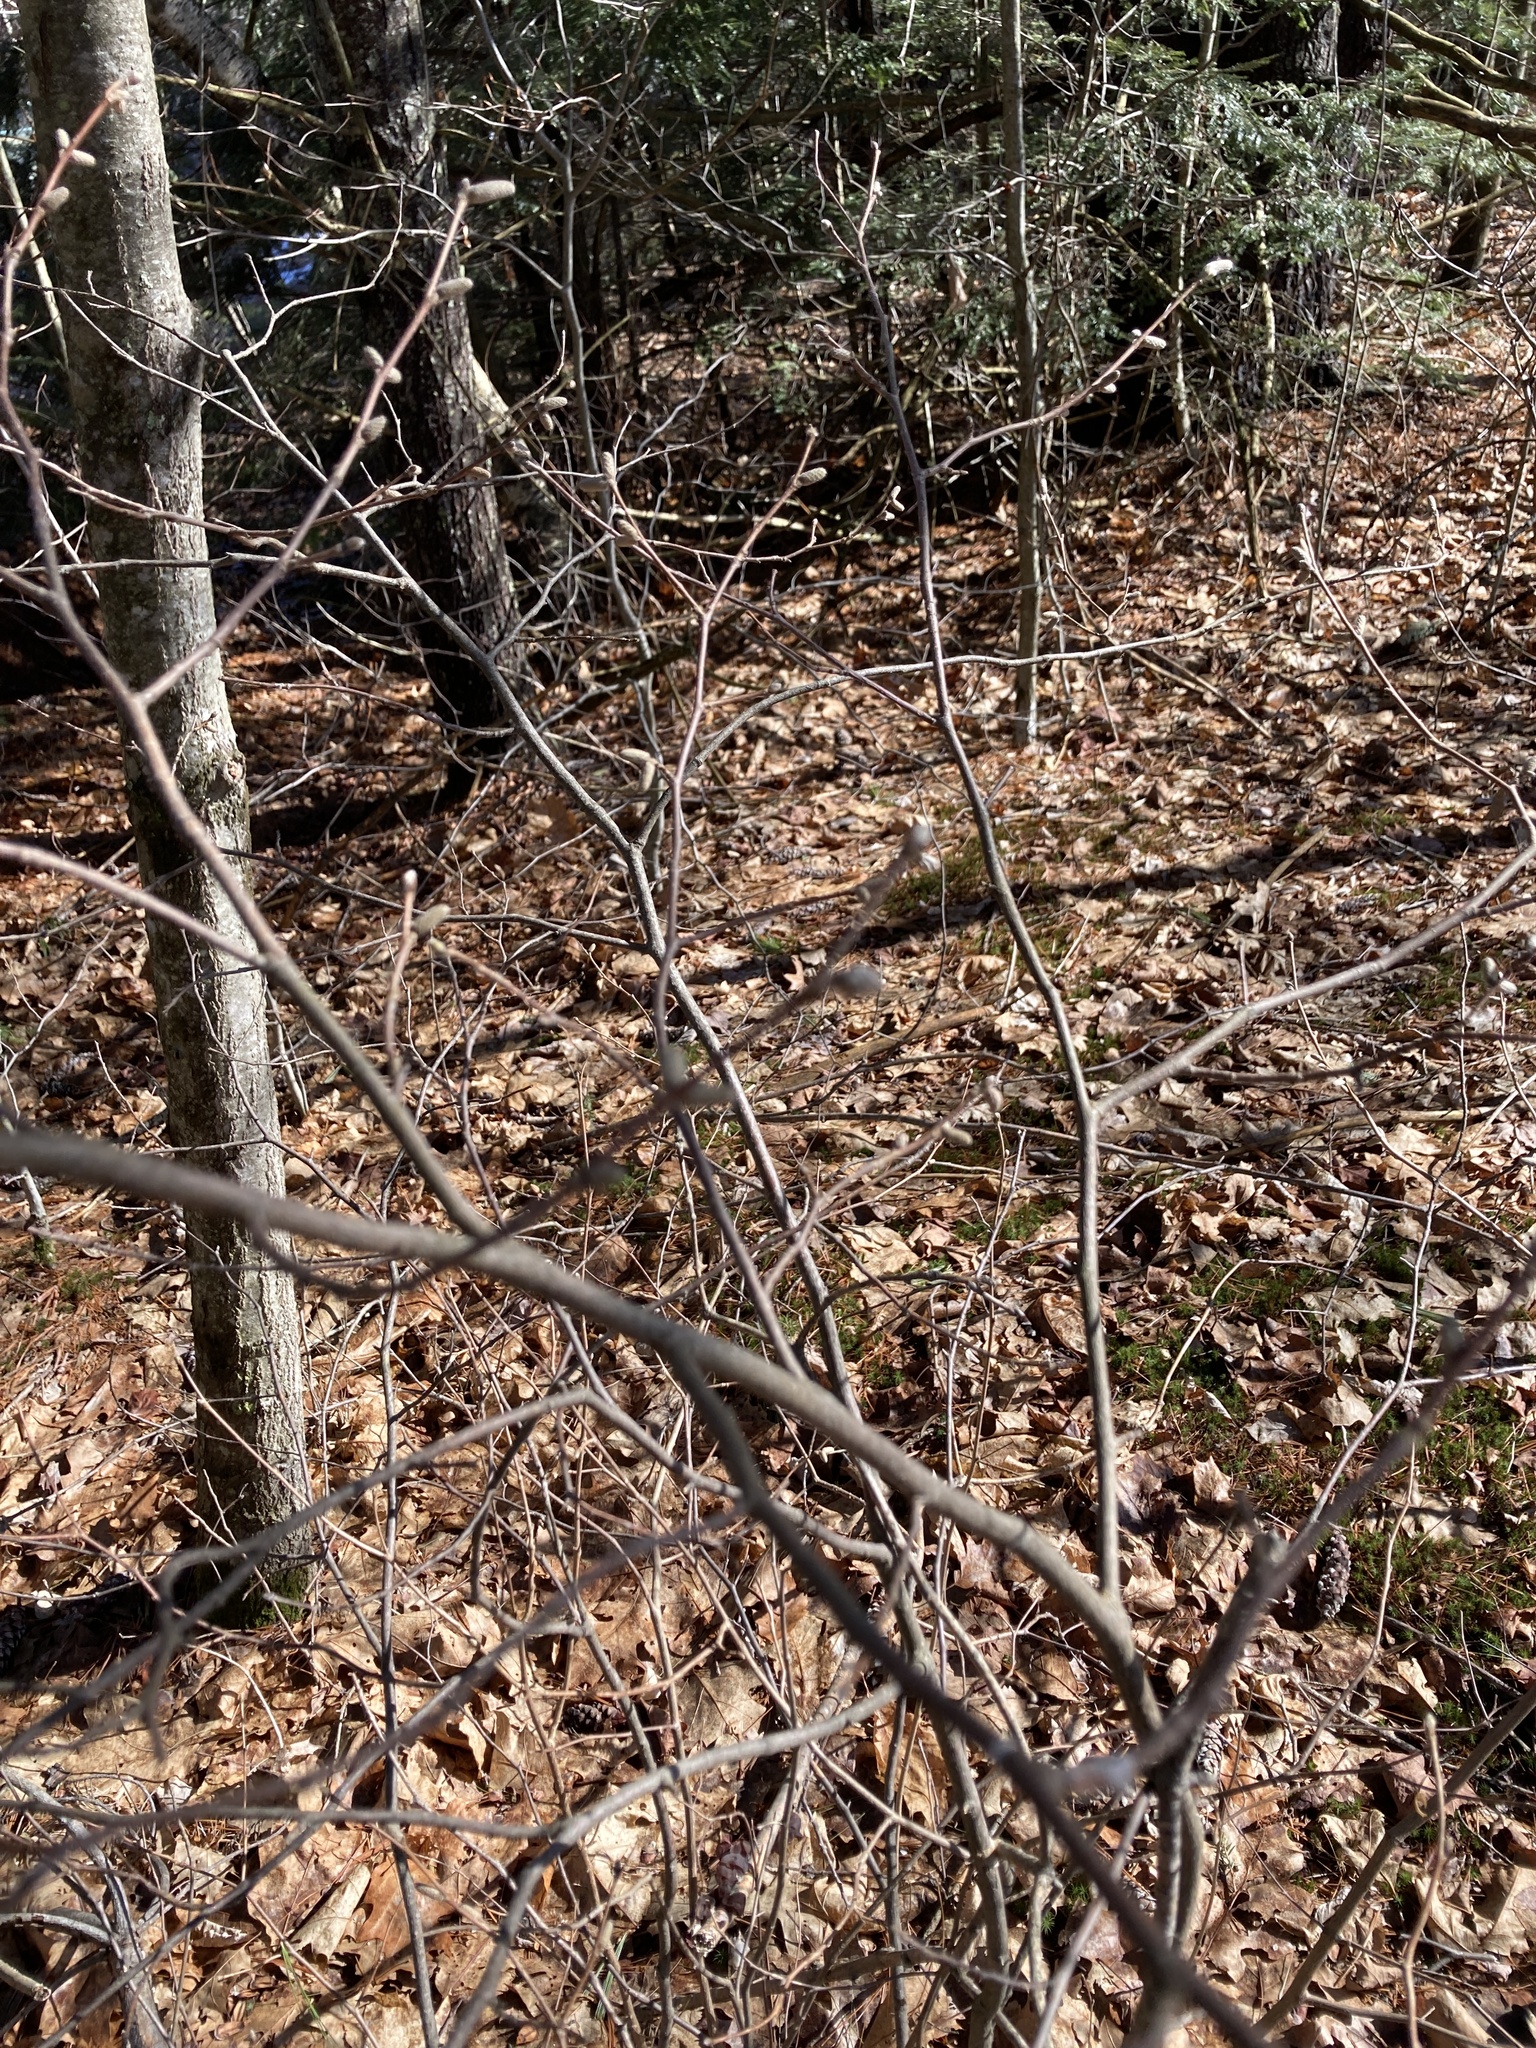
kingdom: Plantae
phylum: Tracheophyta
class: Magnoliopsida
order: Fagales
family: Betulaceae
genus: Corylus
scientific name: Corylus cornuta
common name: Beaked hazel
